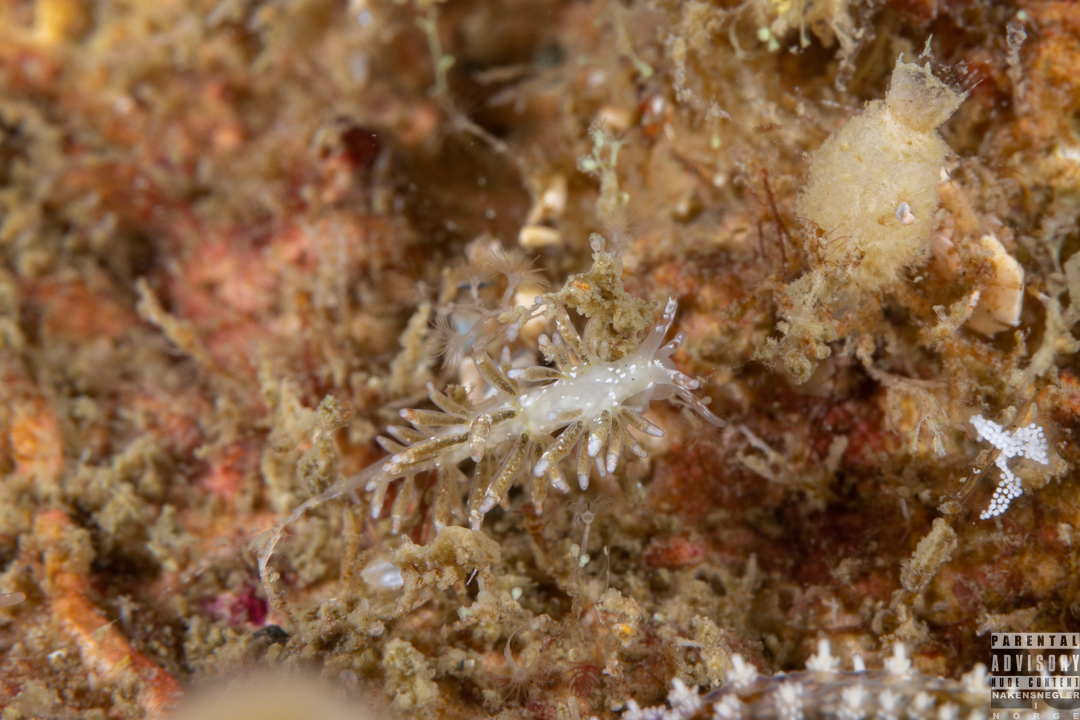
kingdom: Animalia
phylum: Mollusca
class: Gastropoda
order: Nudibranchia
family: Trinchesiidae
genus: Rubramoena
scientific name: Rubramoena amoena
